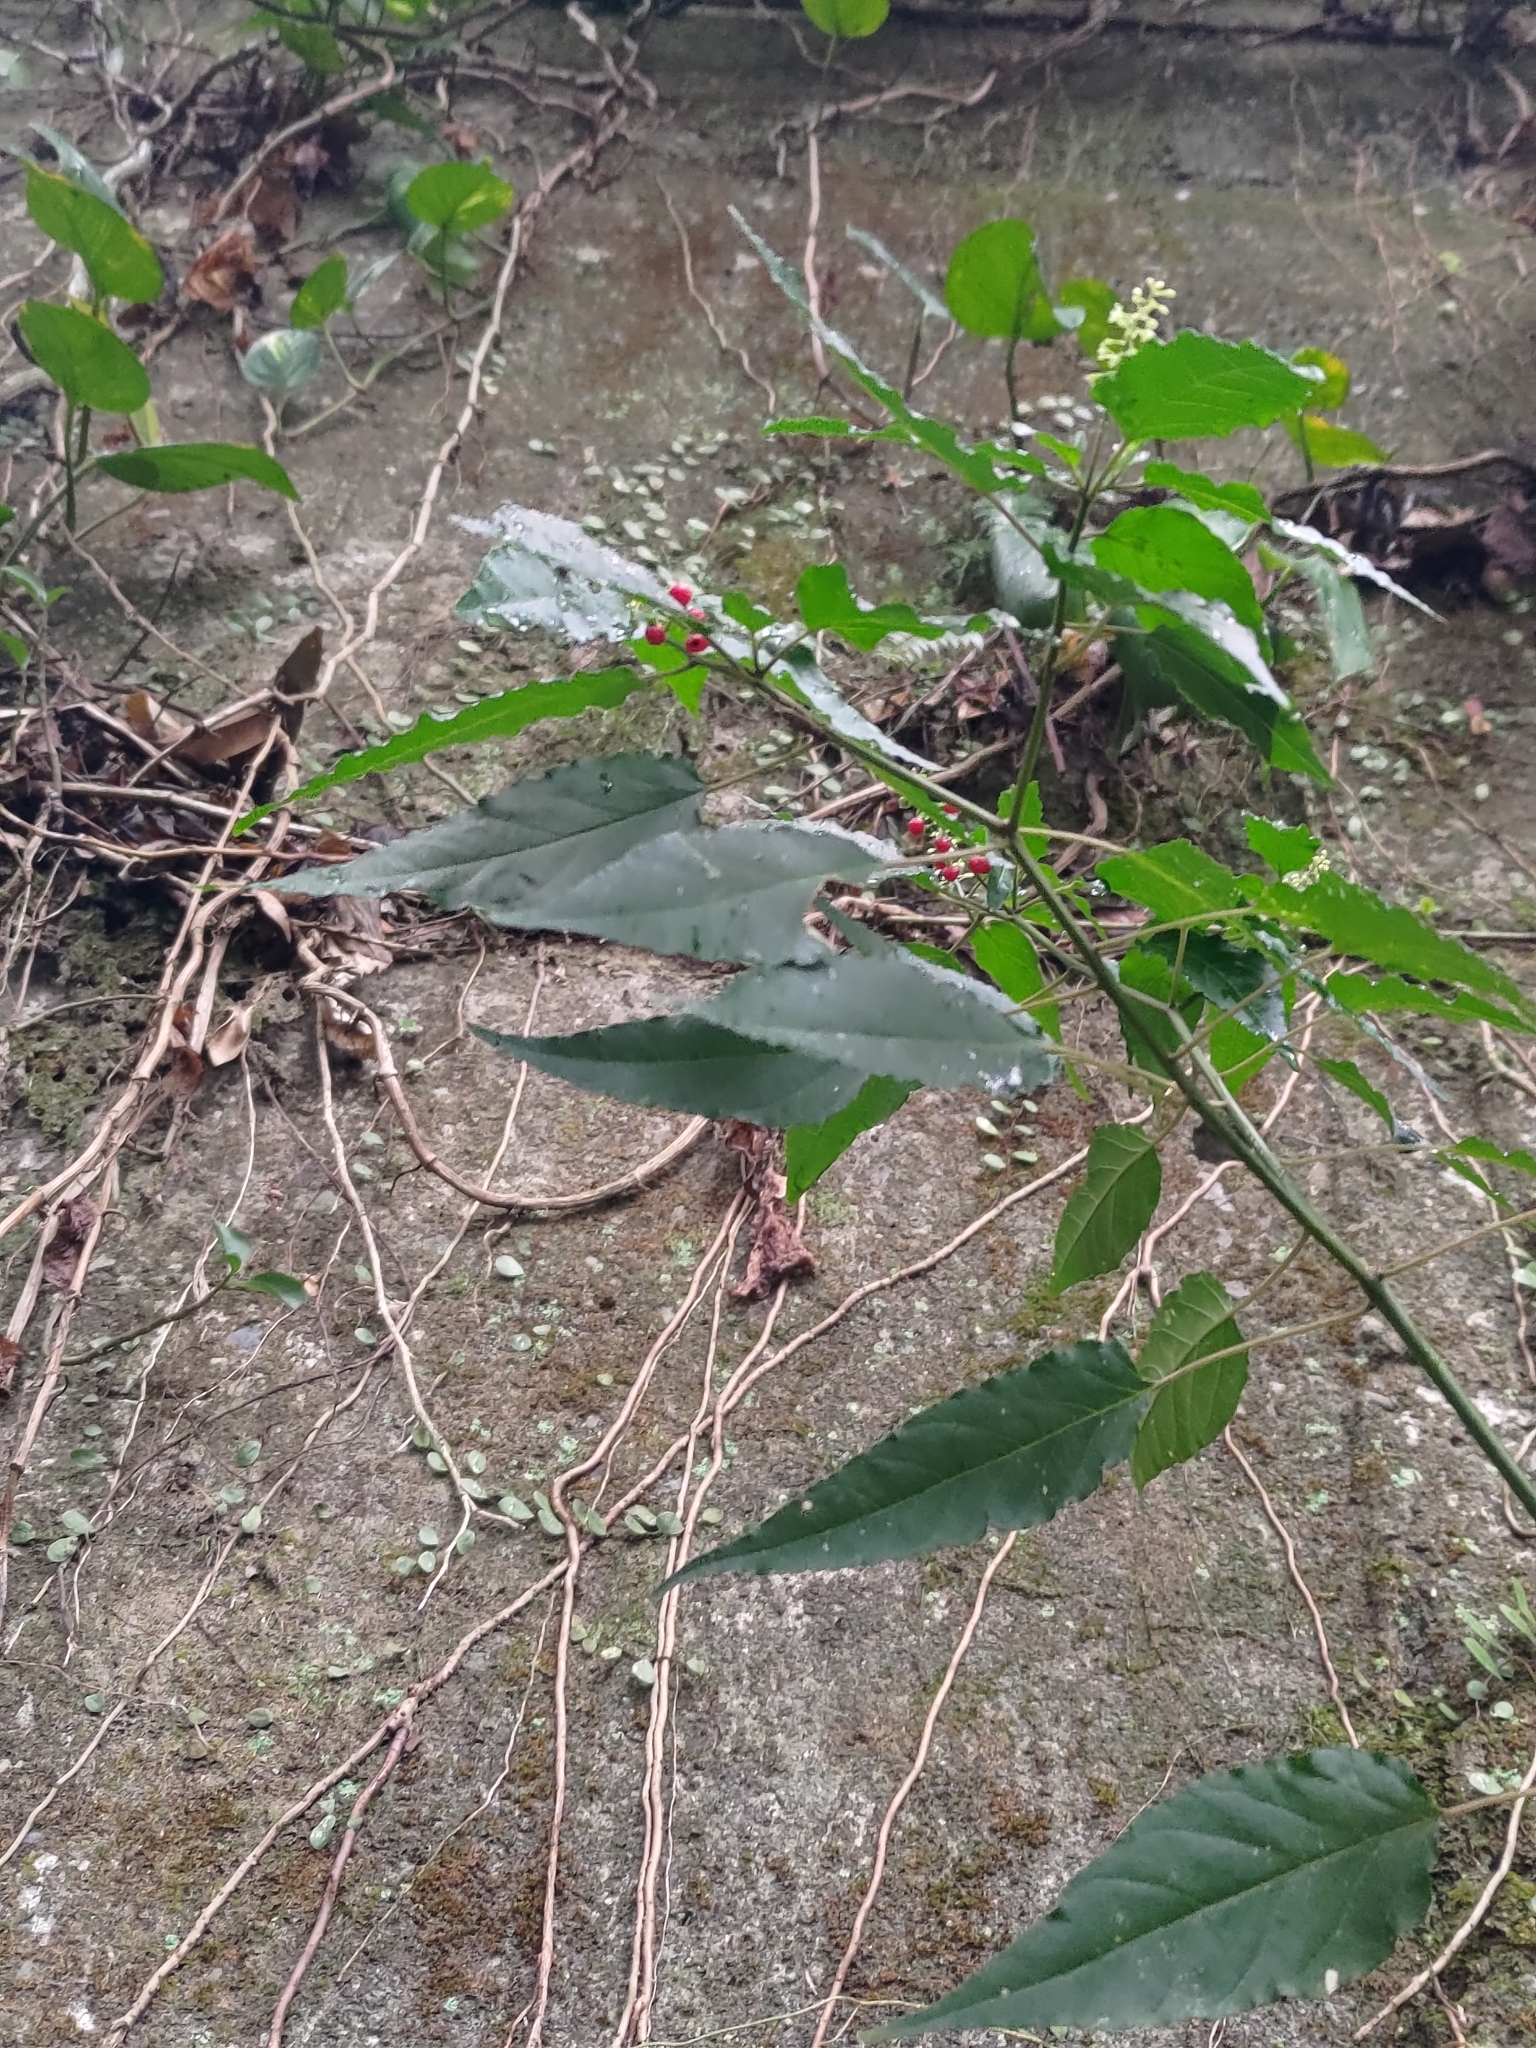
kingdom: Plantae
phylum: Tracheophyta
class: Magnoliopsida
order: Caryophyllales
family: Phytolaccaceae
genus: Rivina
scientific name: Rivina humilis
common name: Rougeplant
